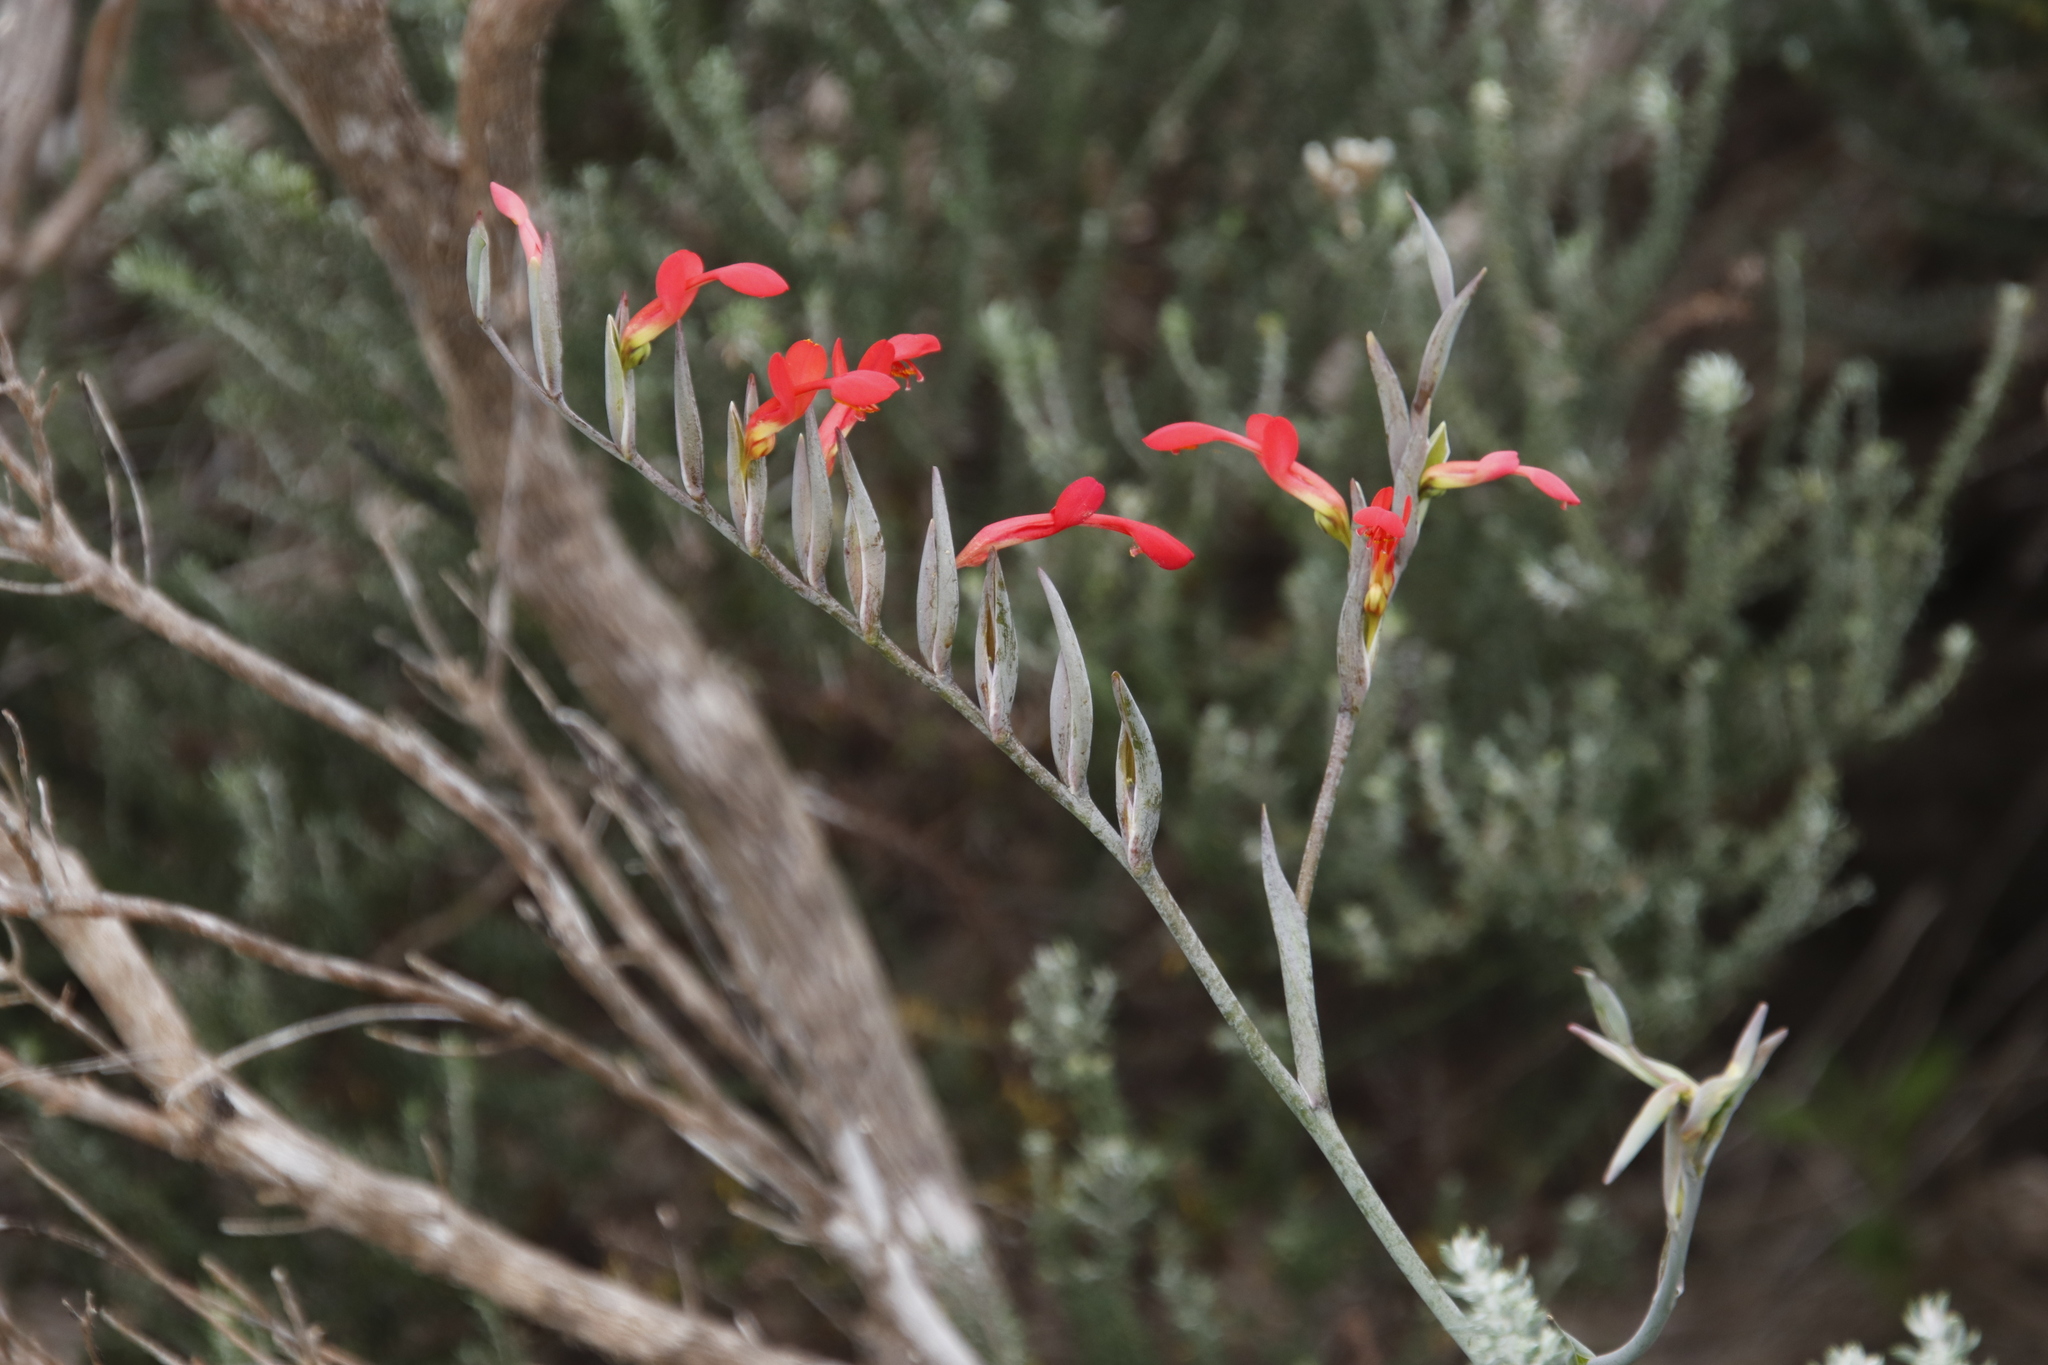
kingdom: Plantae
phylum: Tracheophyta
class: Liliopsida
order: Asparagales
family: Iridaceae
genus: Gladiolus
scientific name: Gladiolus cunonius
